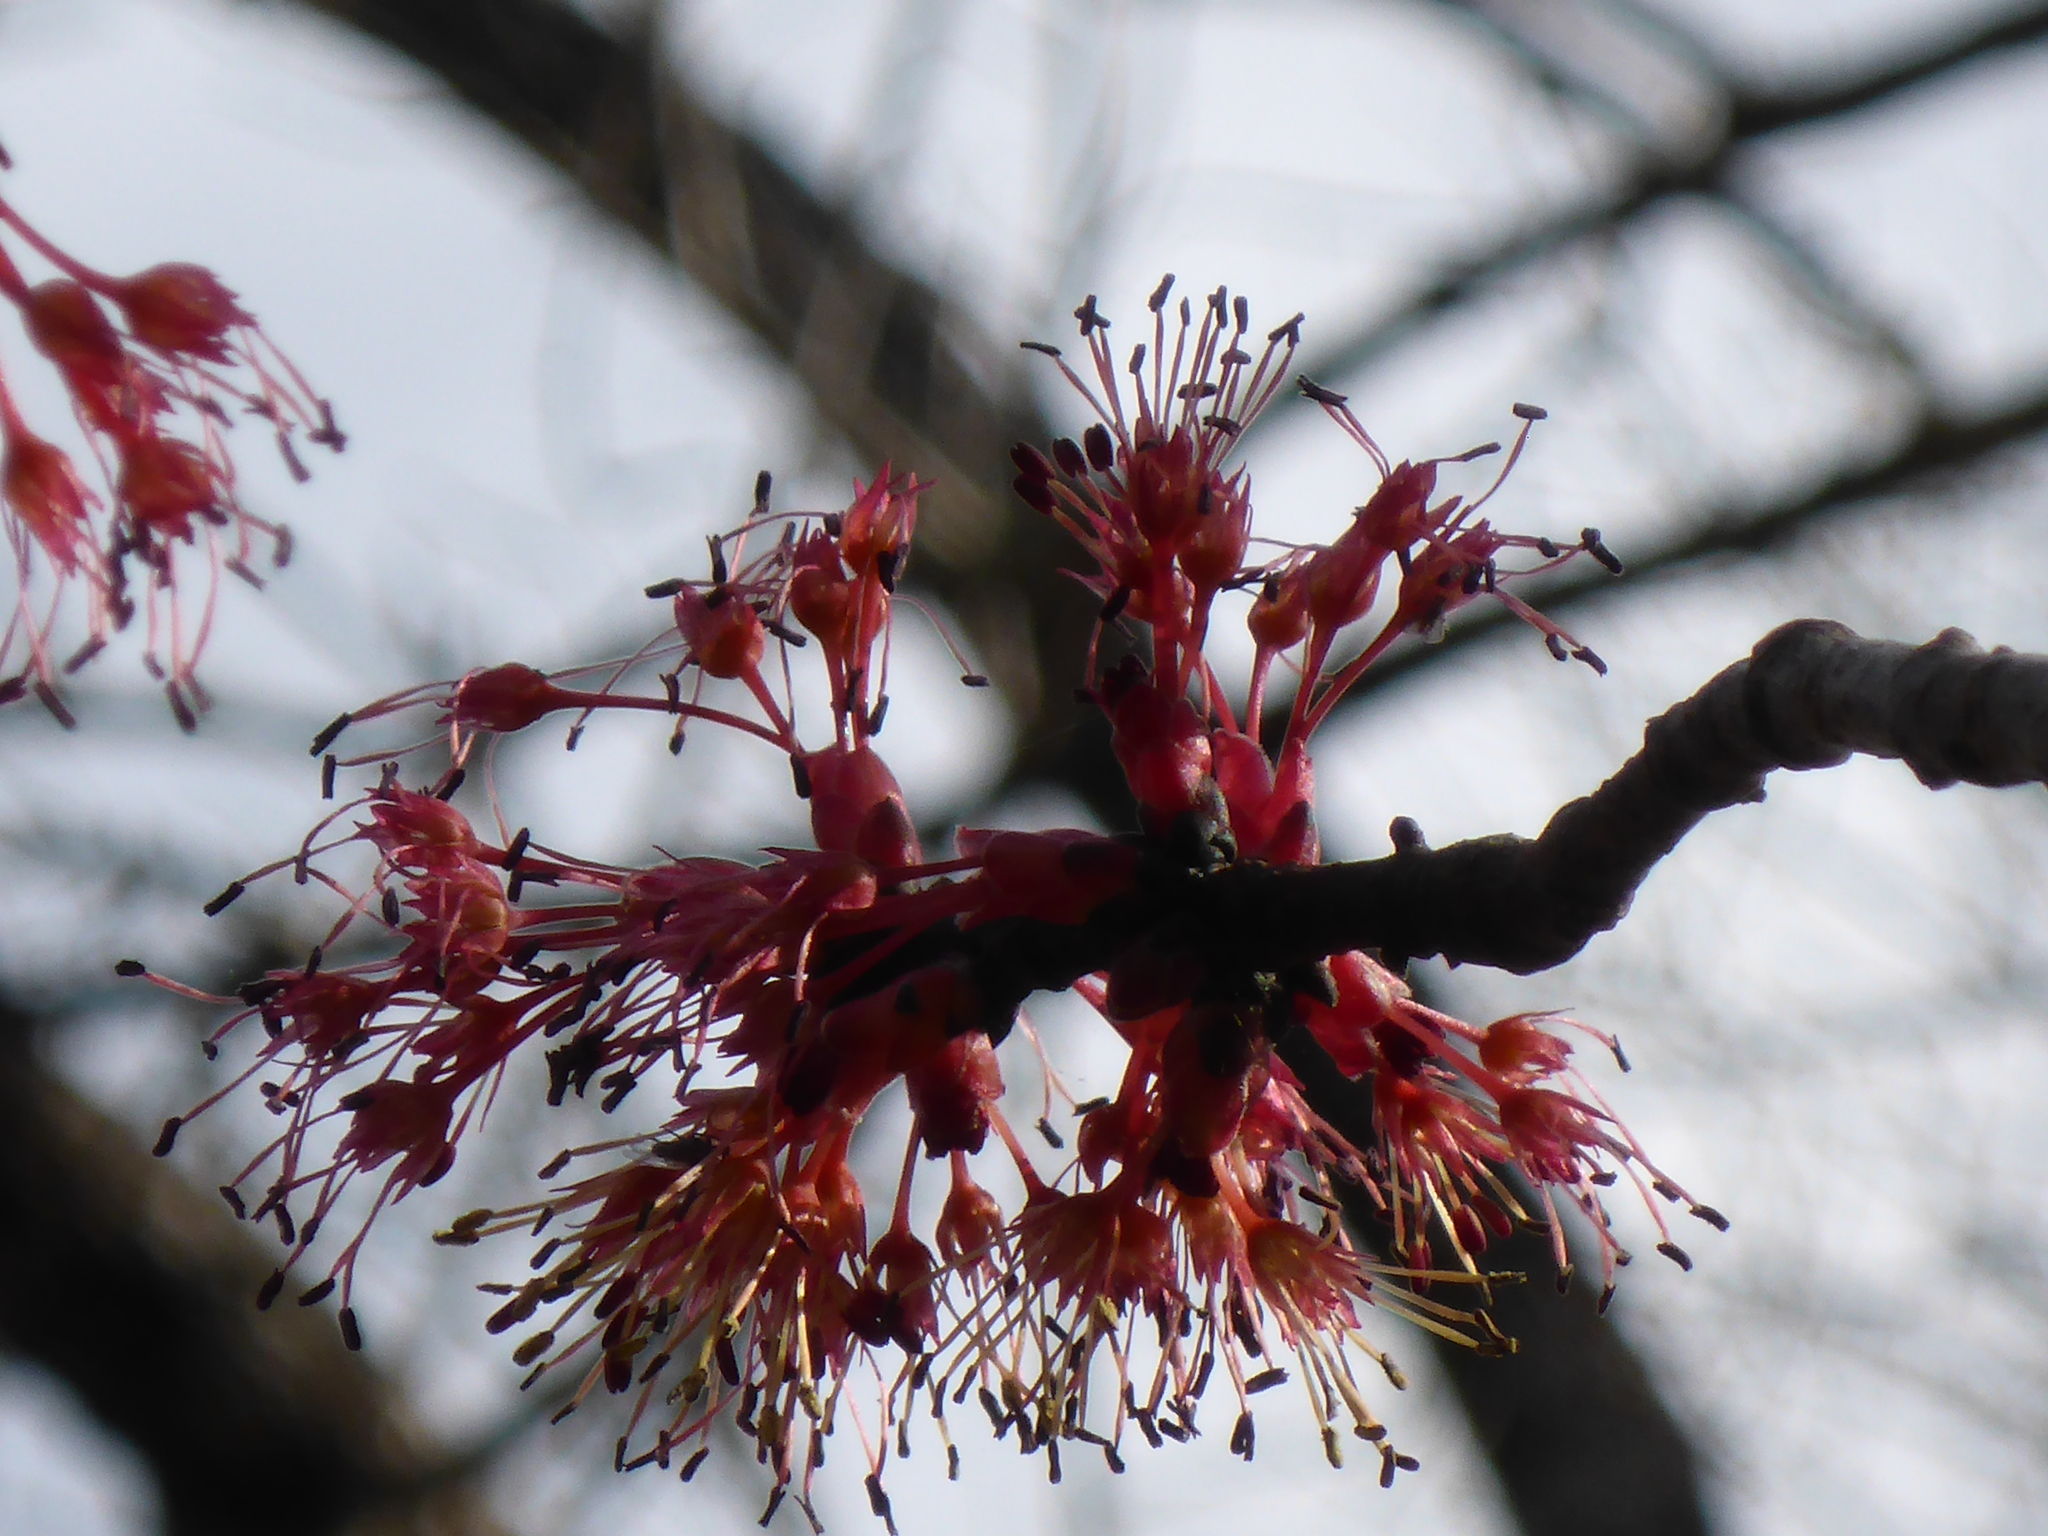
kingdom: Plantae
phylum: Tracheophyta
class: Magnoliopsida
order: Sapindales
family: Sapindaceae
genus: Acer
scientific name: Acer rubrum
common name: Red maple
